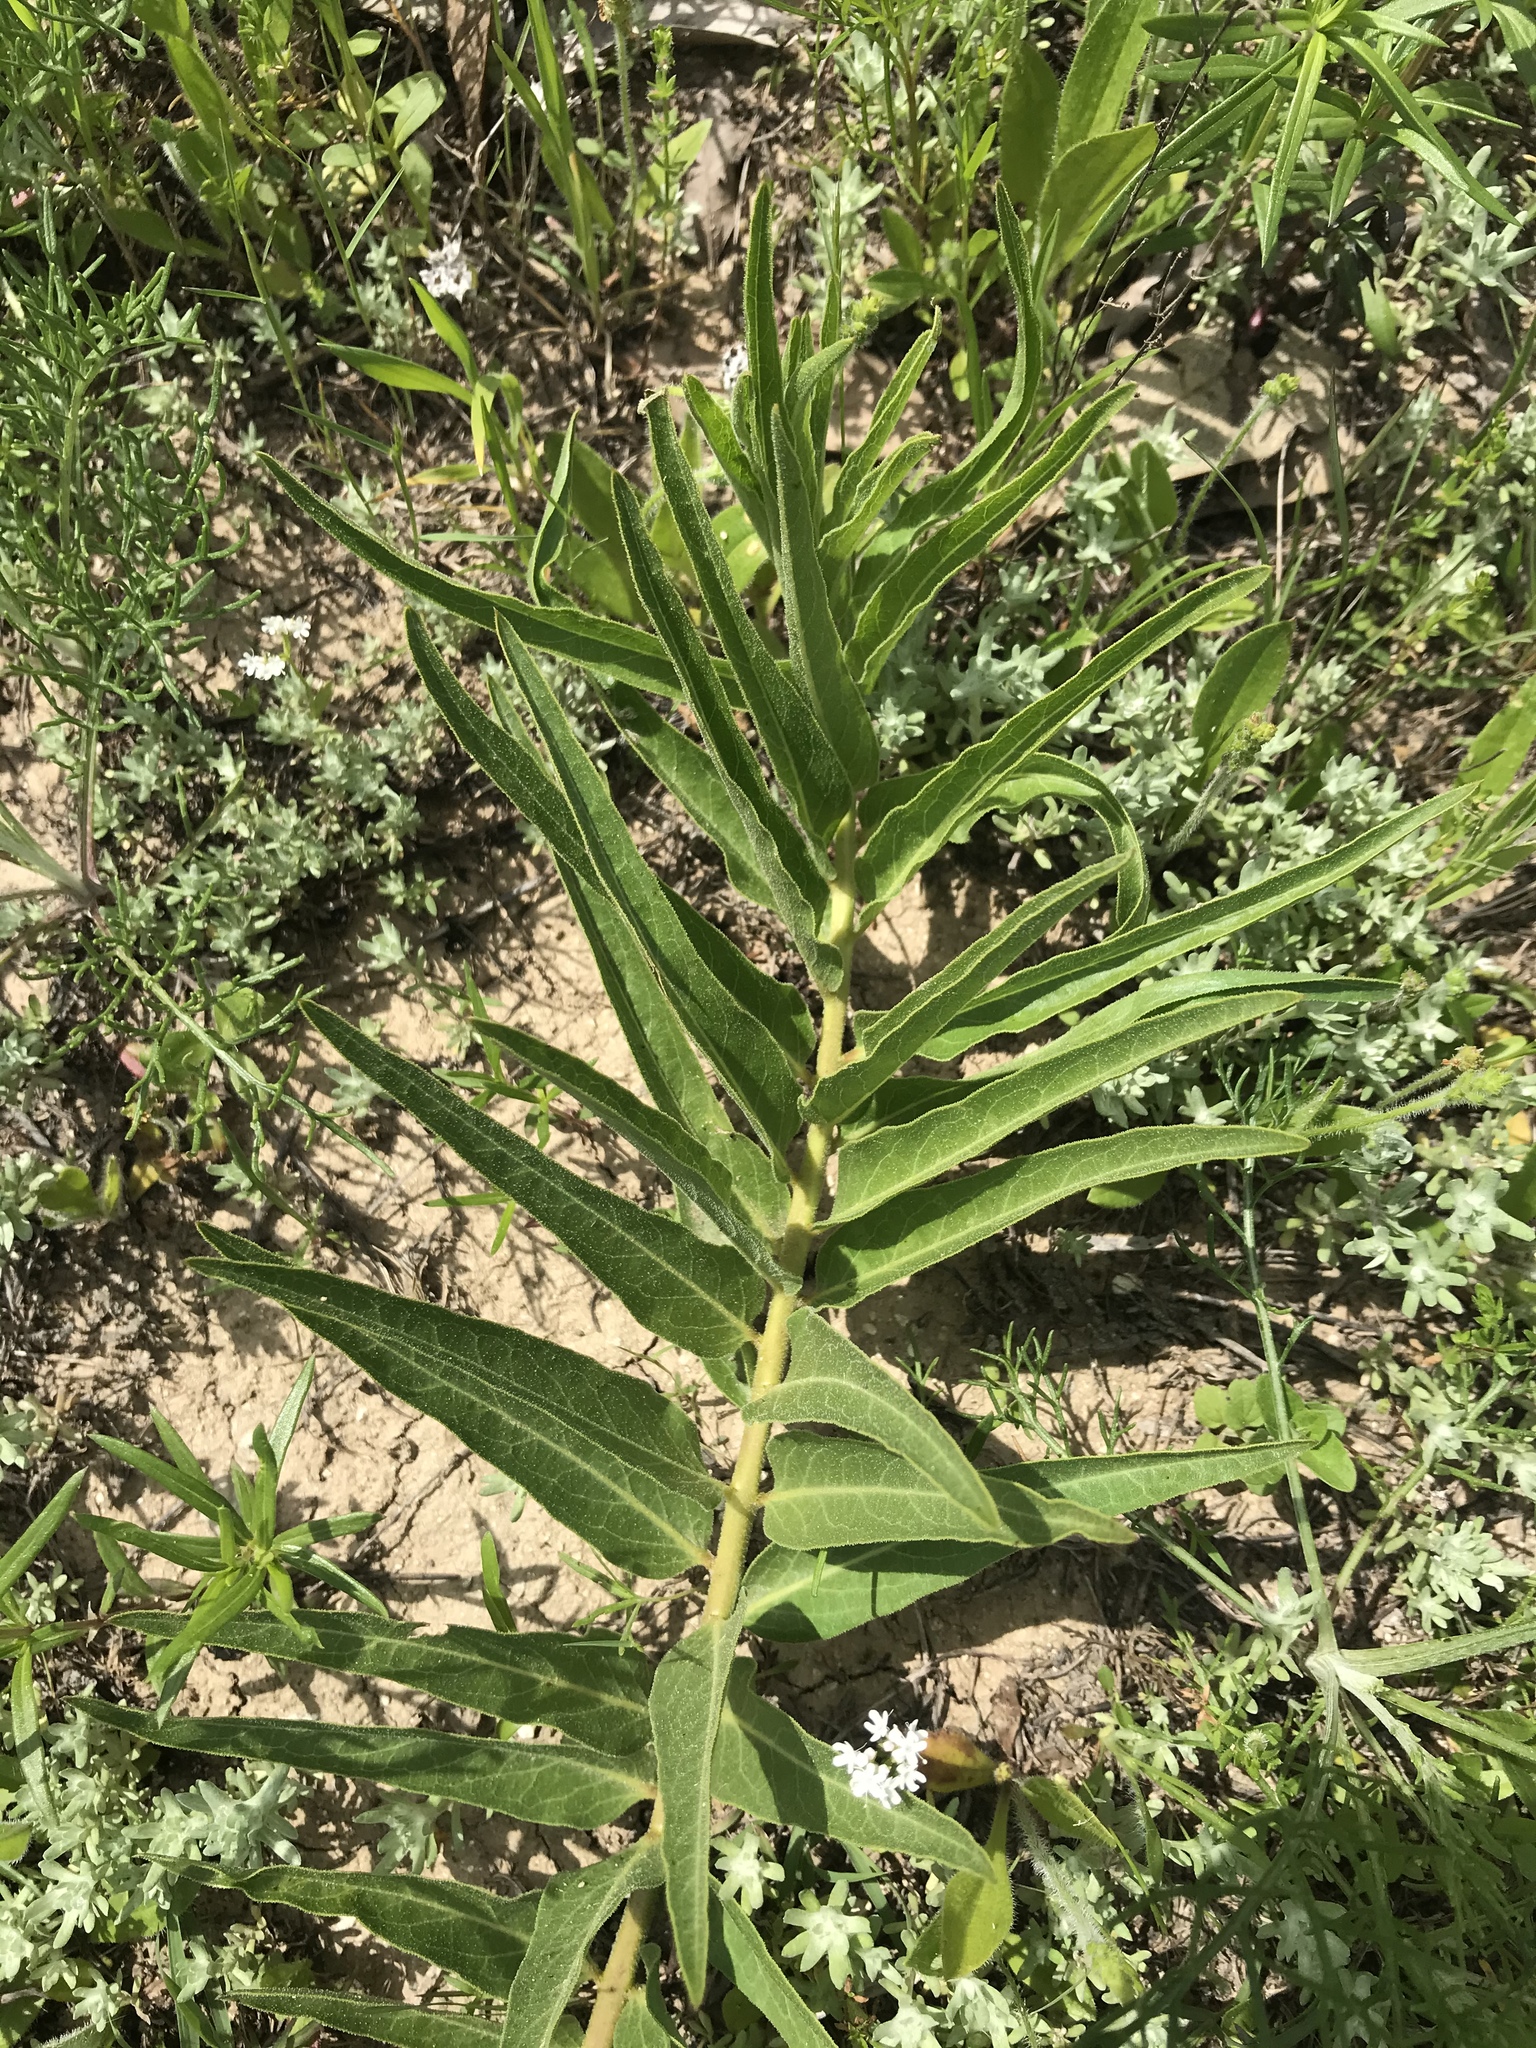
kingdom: Plantae
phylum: Tracheophyta
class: Magnoliopsida
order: Gentianales
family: Apocynaceae
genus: Asclepias
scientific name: Asclepias asperula
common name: Antelope horns
